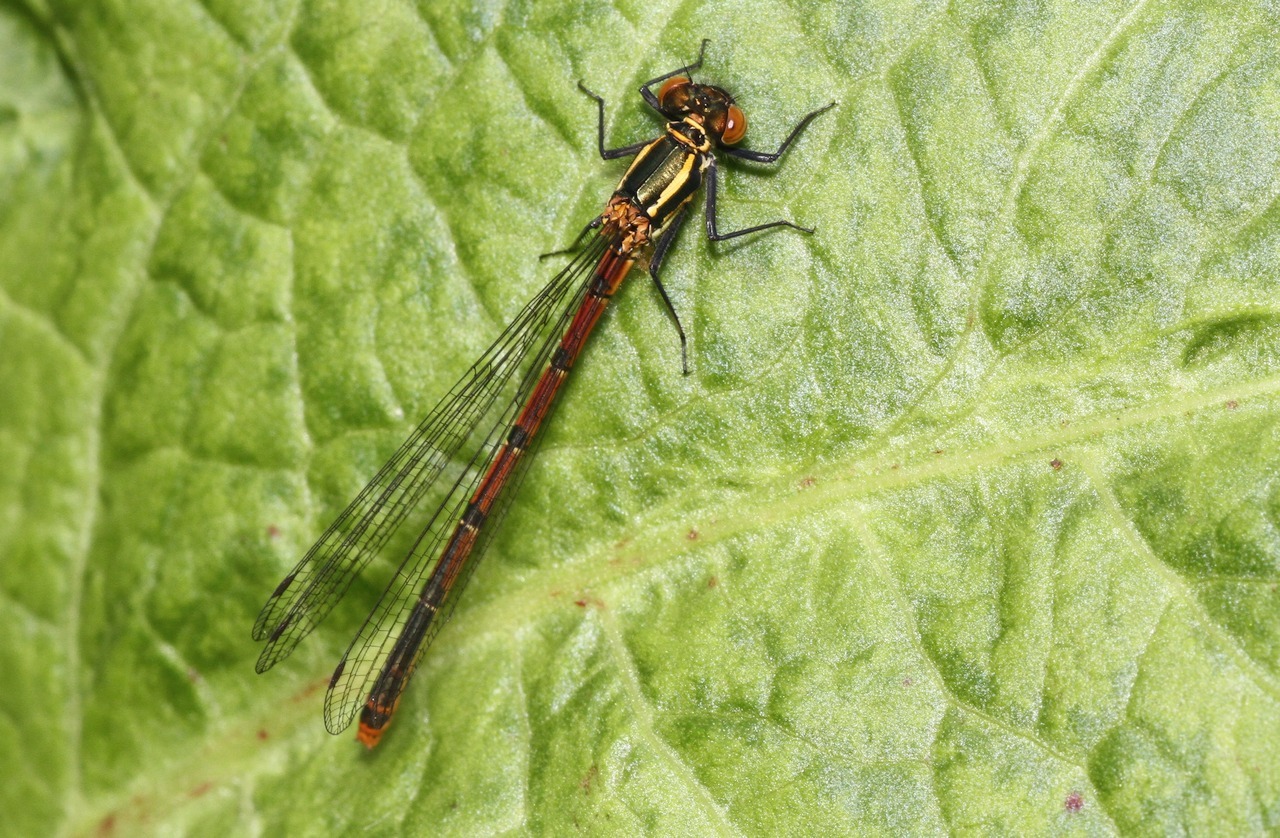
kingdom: Animalia
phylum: Arthropoda
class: Insecta
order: Odonata
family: Coenagrionidae
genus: Pyrrhosoma
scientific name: Pyrrhosoma nymphula
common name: Large red damsel
